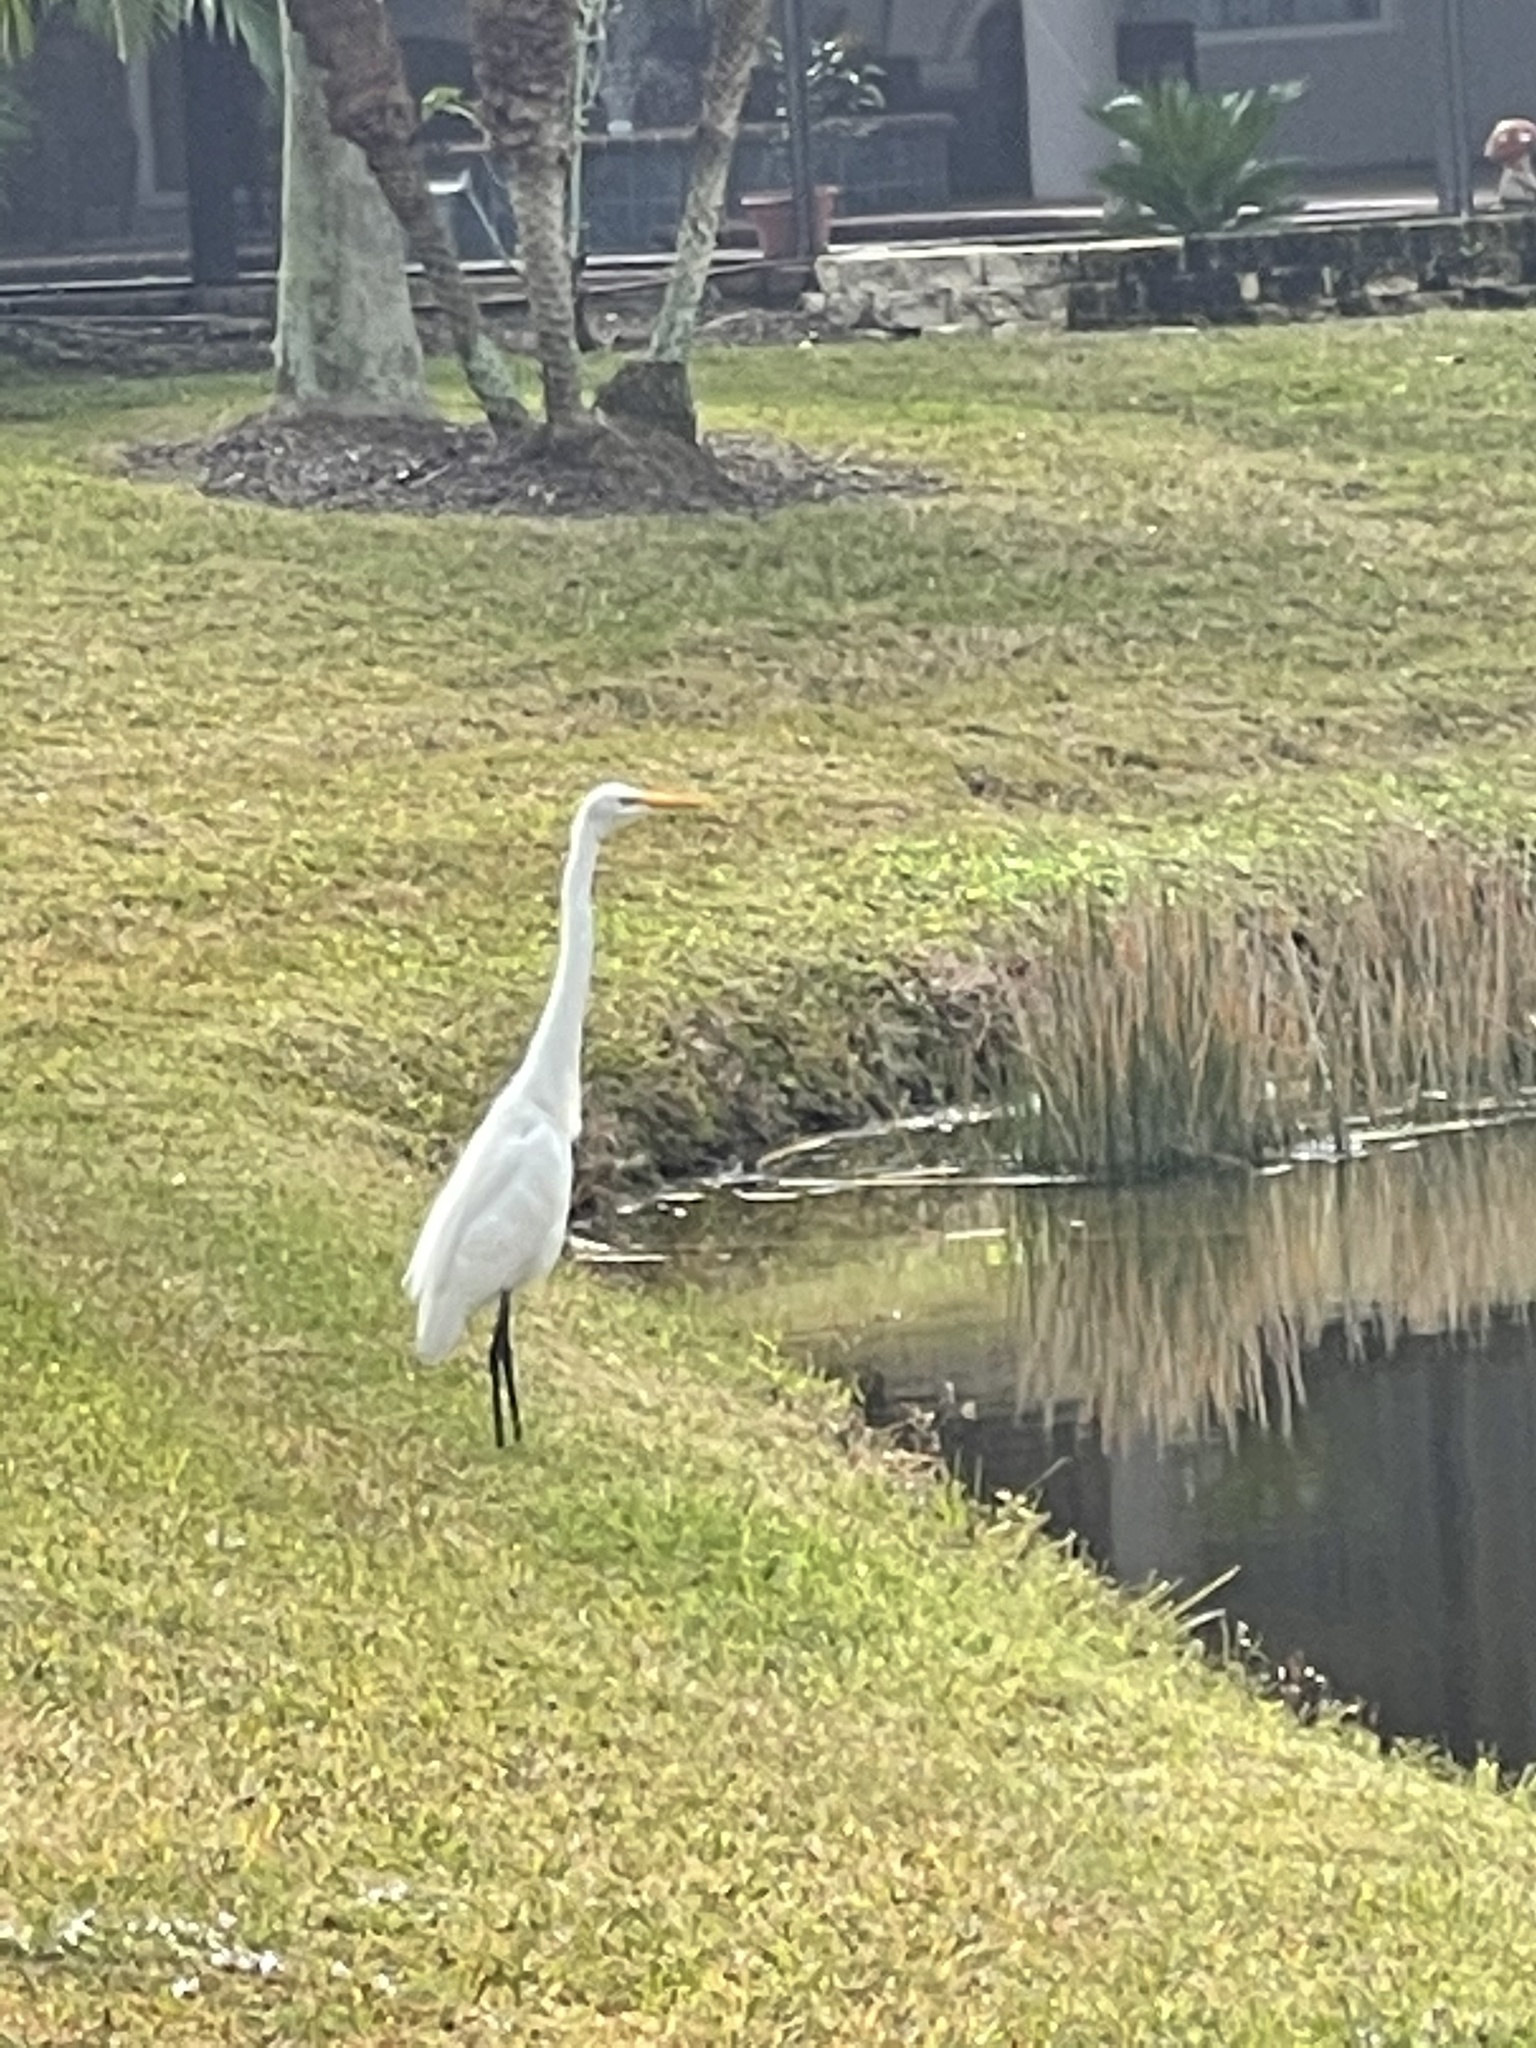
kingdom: Animalia
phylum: Chordata
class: Aves
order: Pelecaniformes
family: Ardeidae
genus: Ardea
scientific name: Ardea alba
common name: Great egret
